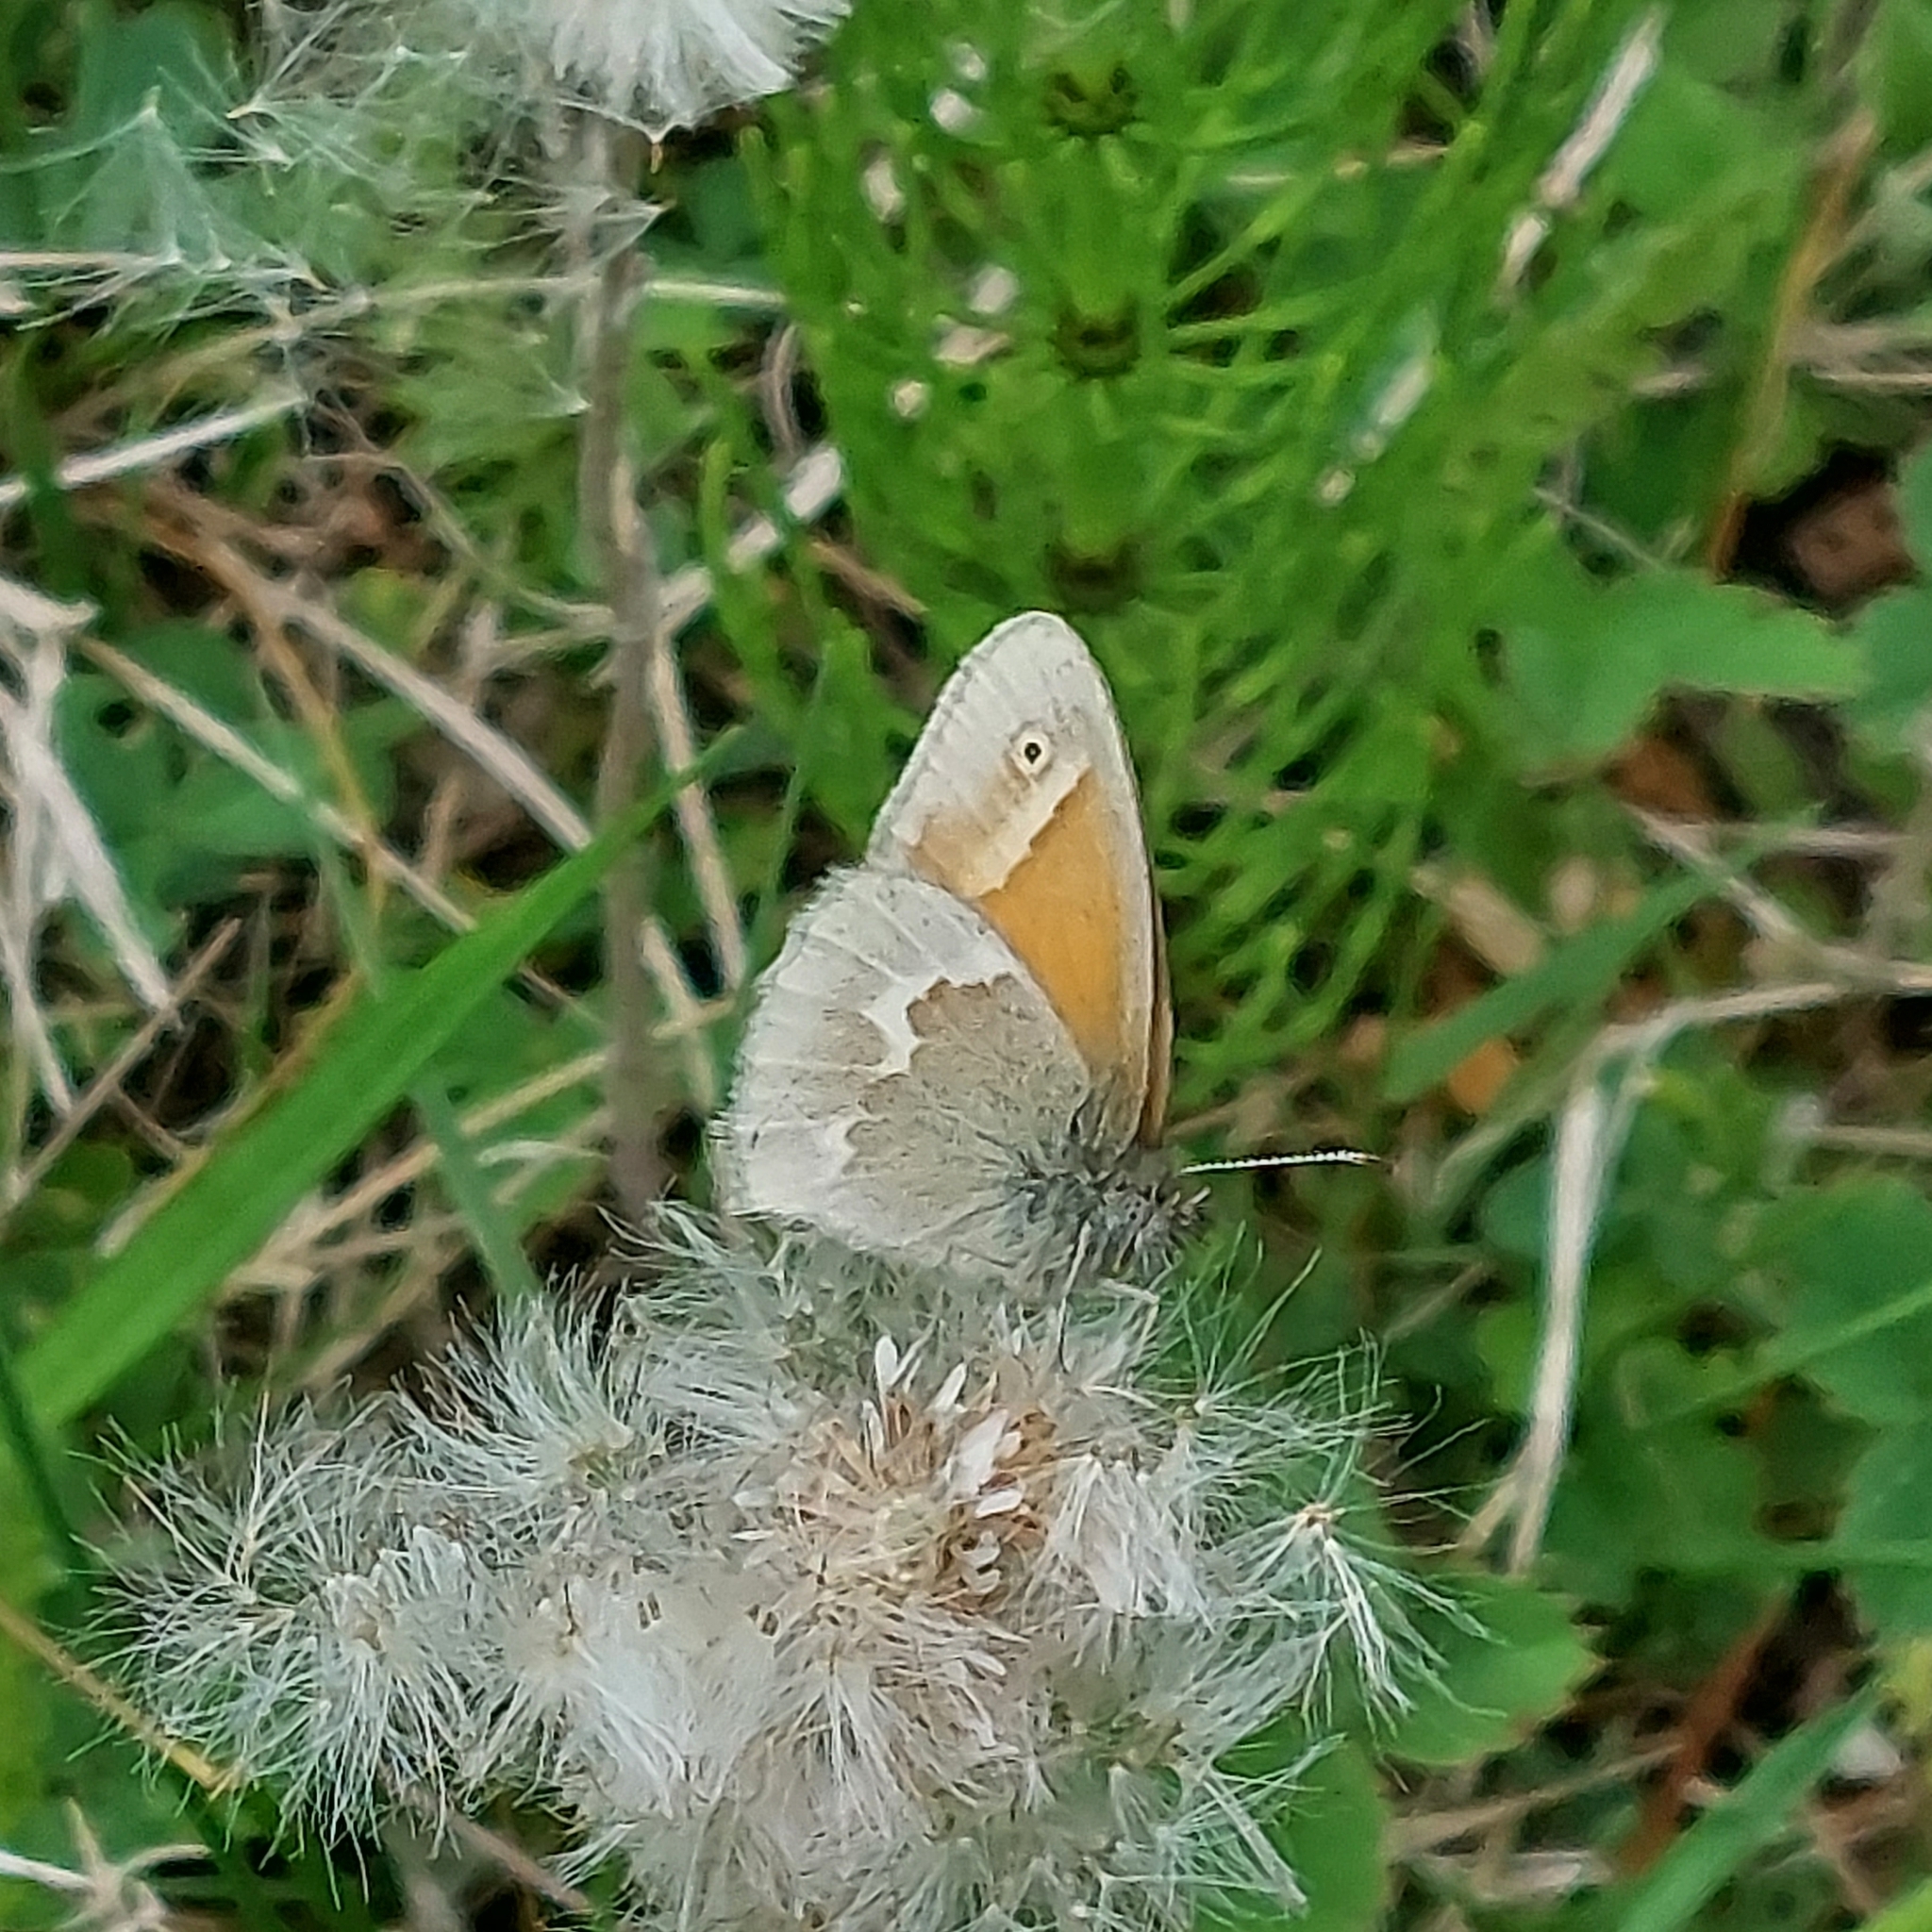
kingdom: Animalia
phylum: Arthropoda
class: Insecta
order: Lepidoptera
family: Nymphalidae
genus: Coenonympha
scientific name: Coenonympha california
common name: Common ringlet
